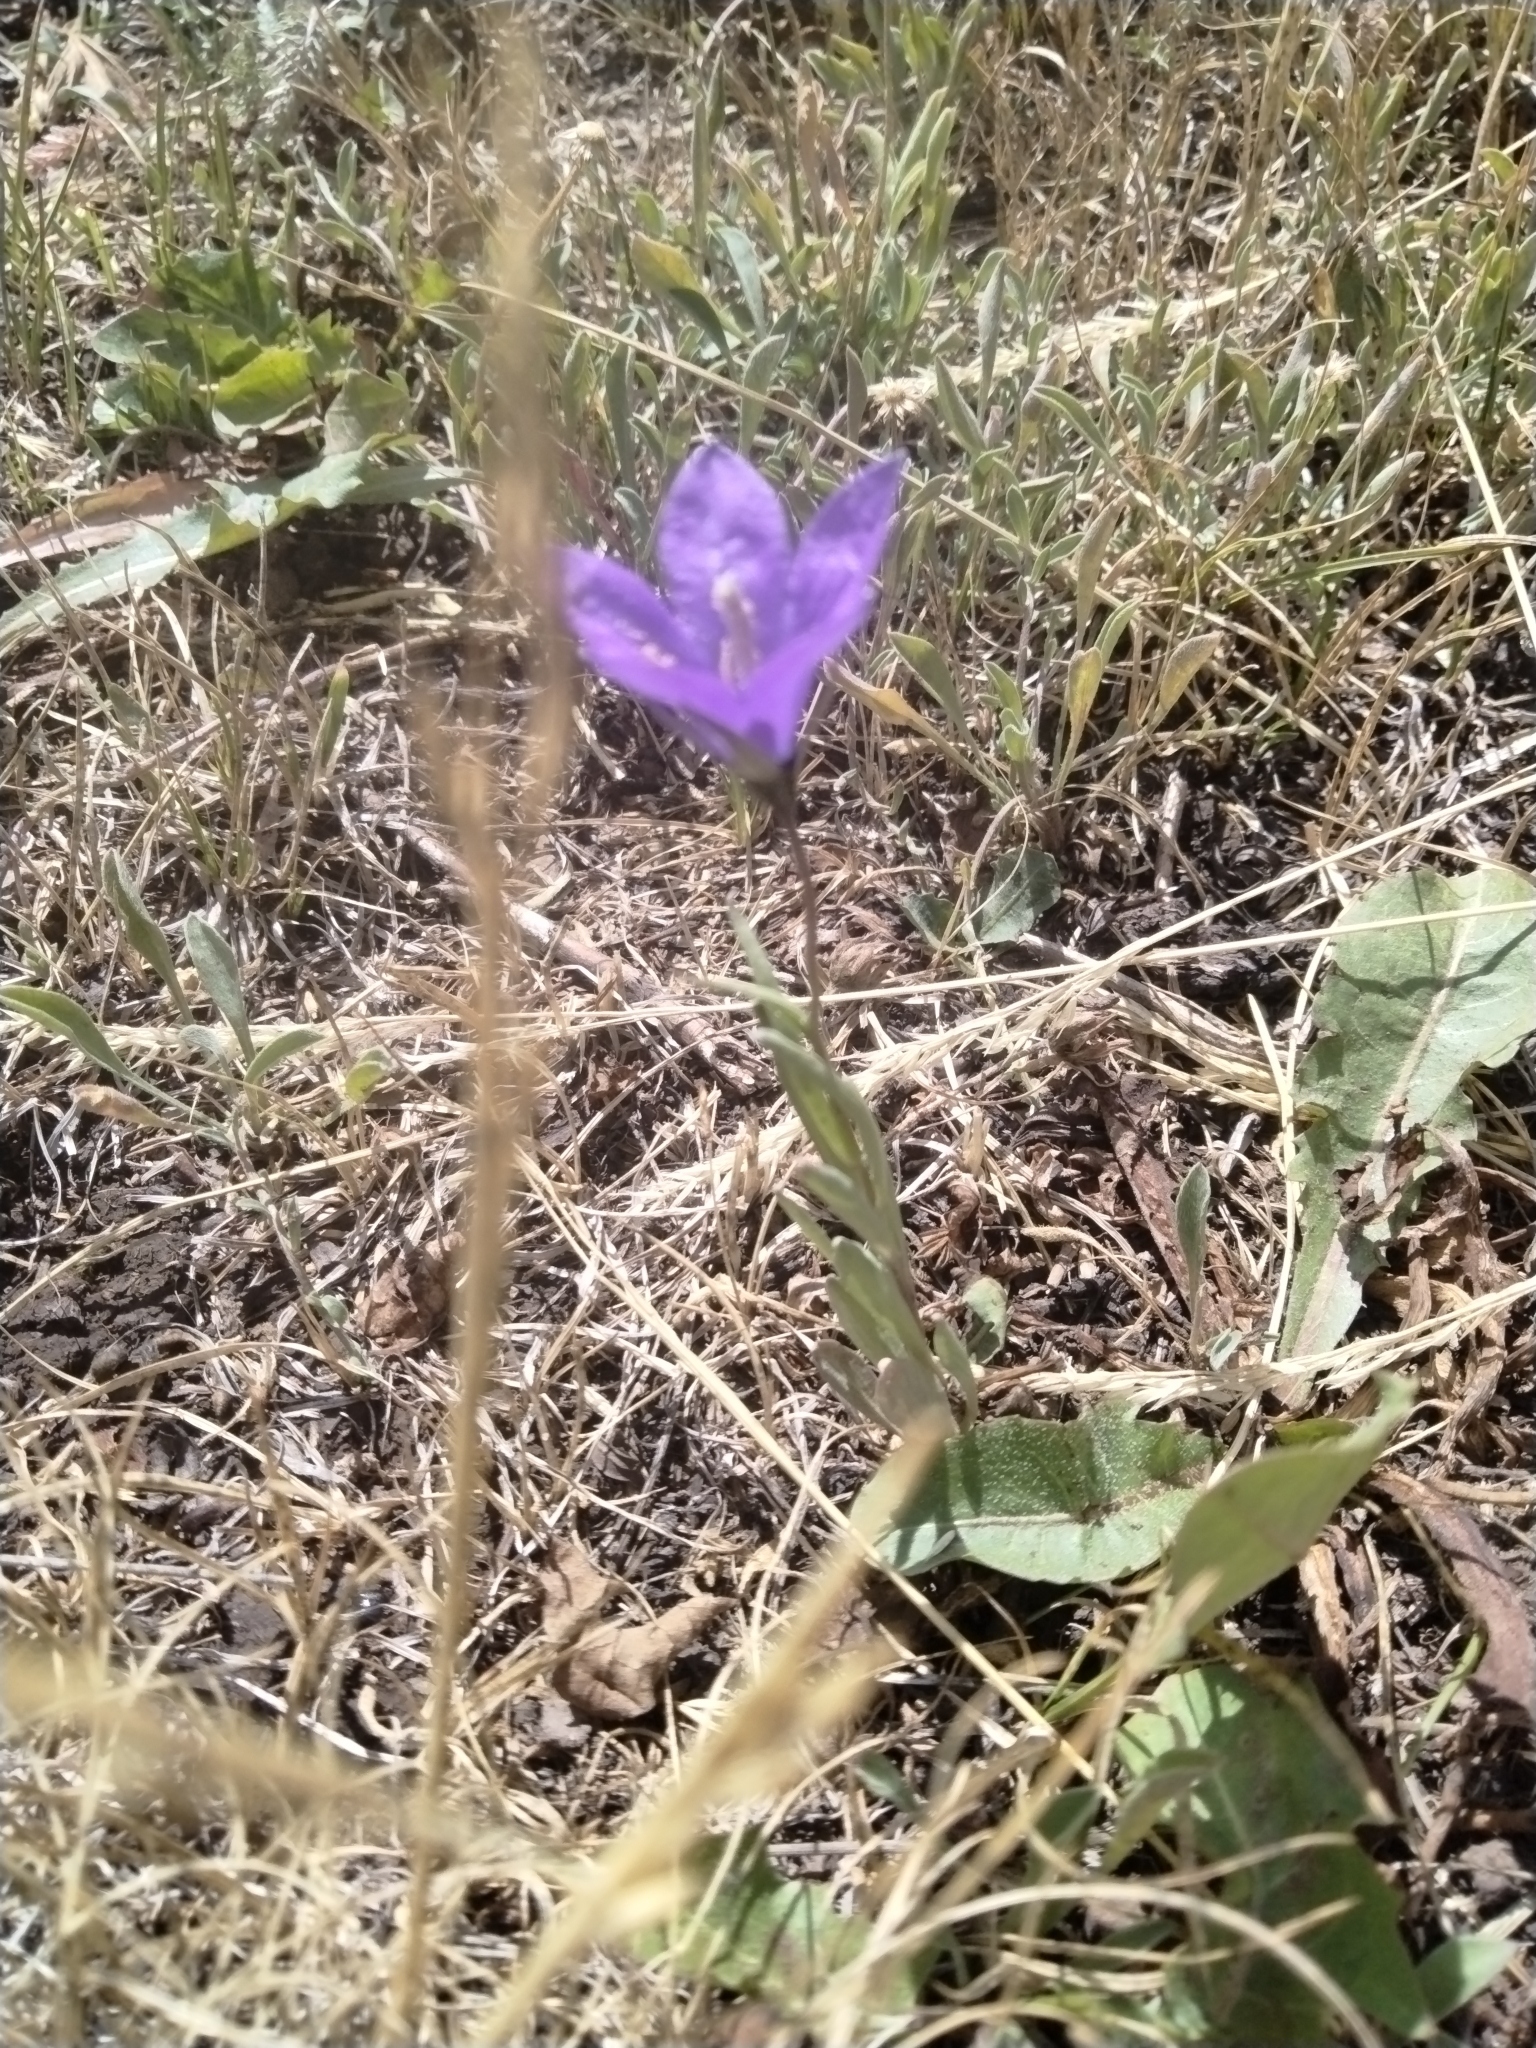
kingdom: Plantae
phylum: Tracheophyta
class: Magnoliopsida
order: Asterales
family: Campanulaceae
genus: Campanula
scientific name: Campanula parryi
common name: Rocky mountain bellflower
